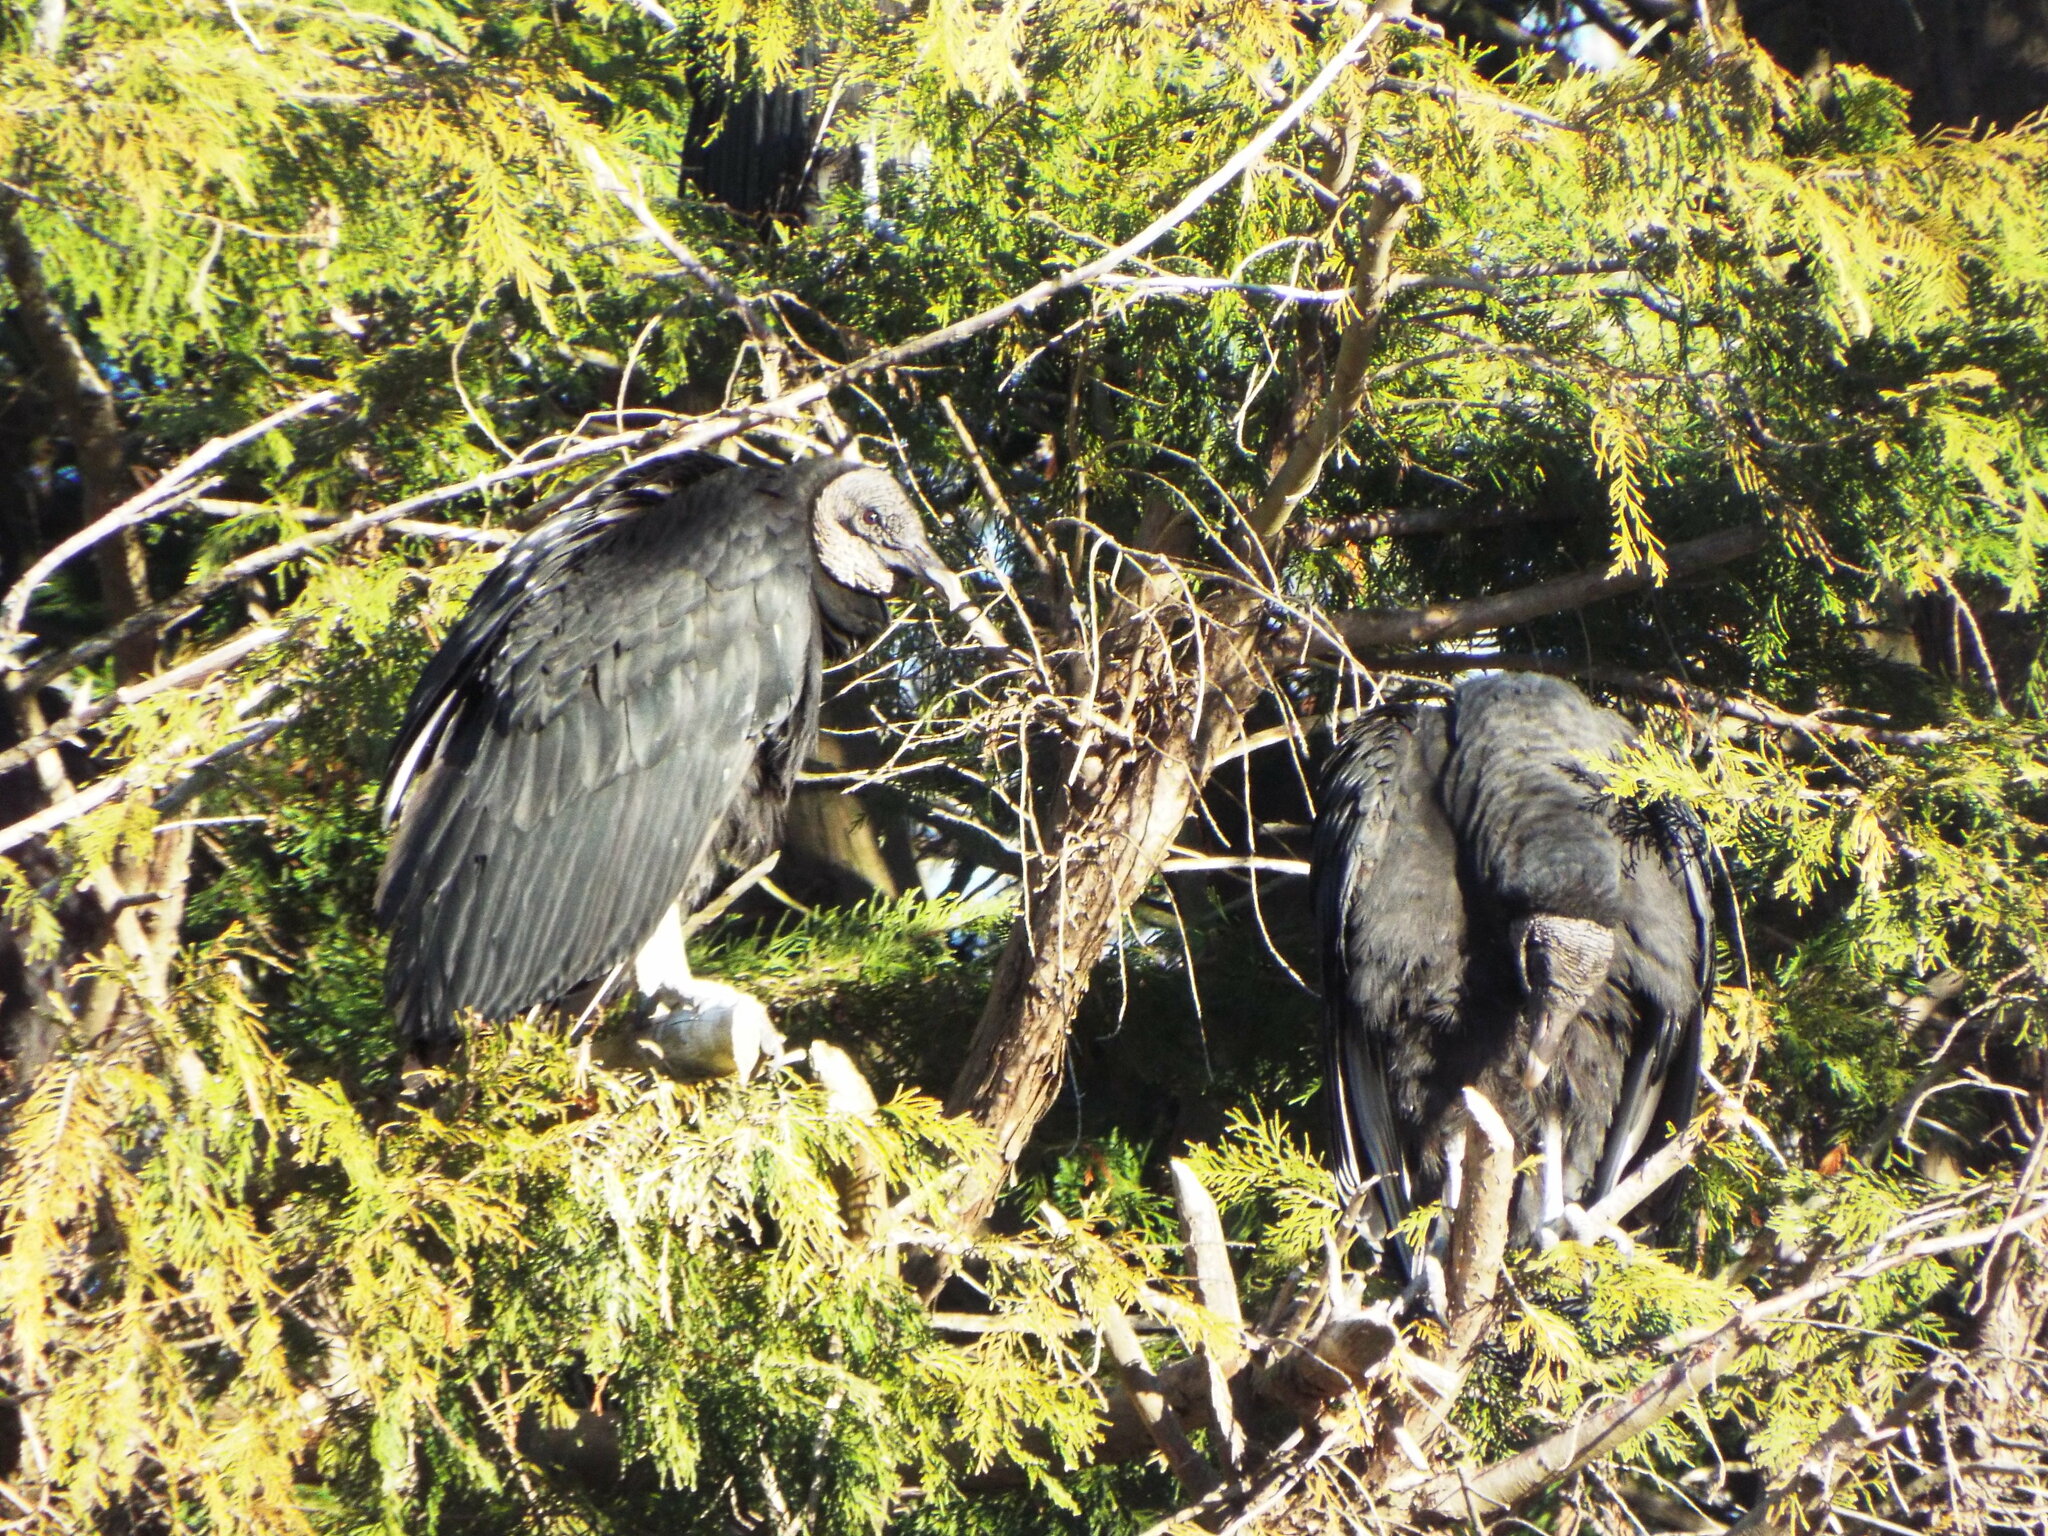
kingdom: Animalia
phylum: Chordata
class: Aves
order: Accipitriformes
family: Cathartidae
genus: Coragyps
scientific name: Coragyps atratus
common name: Black vulture
